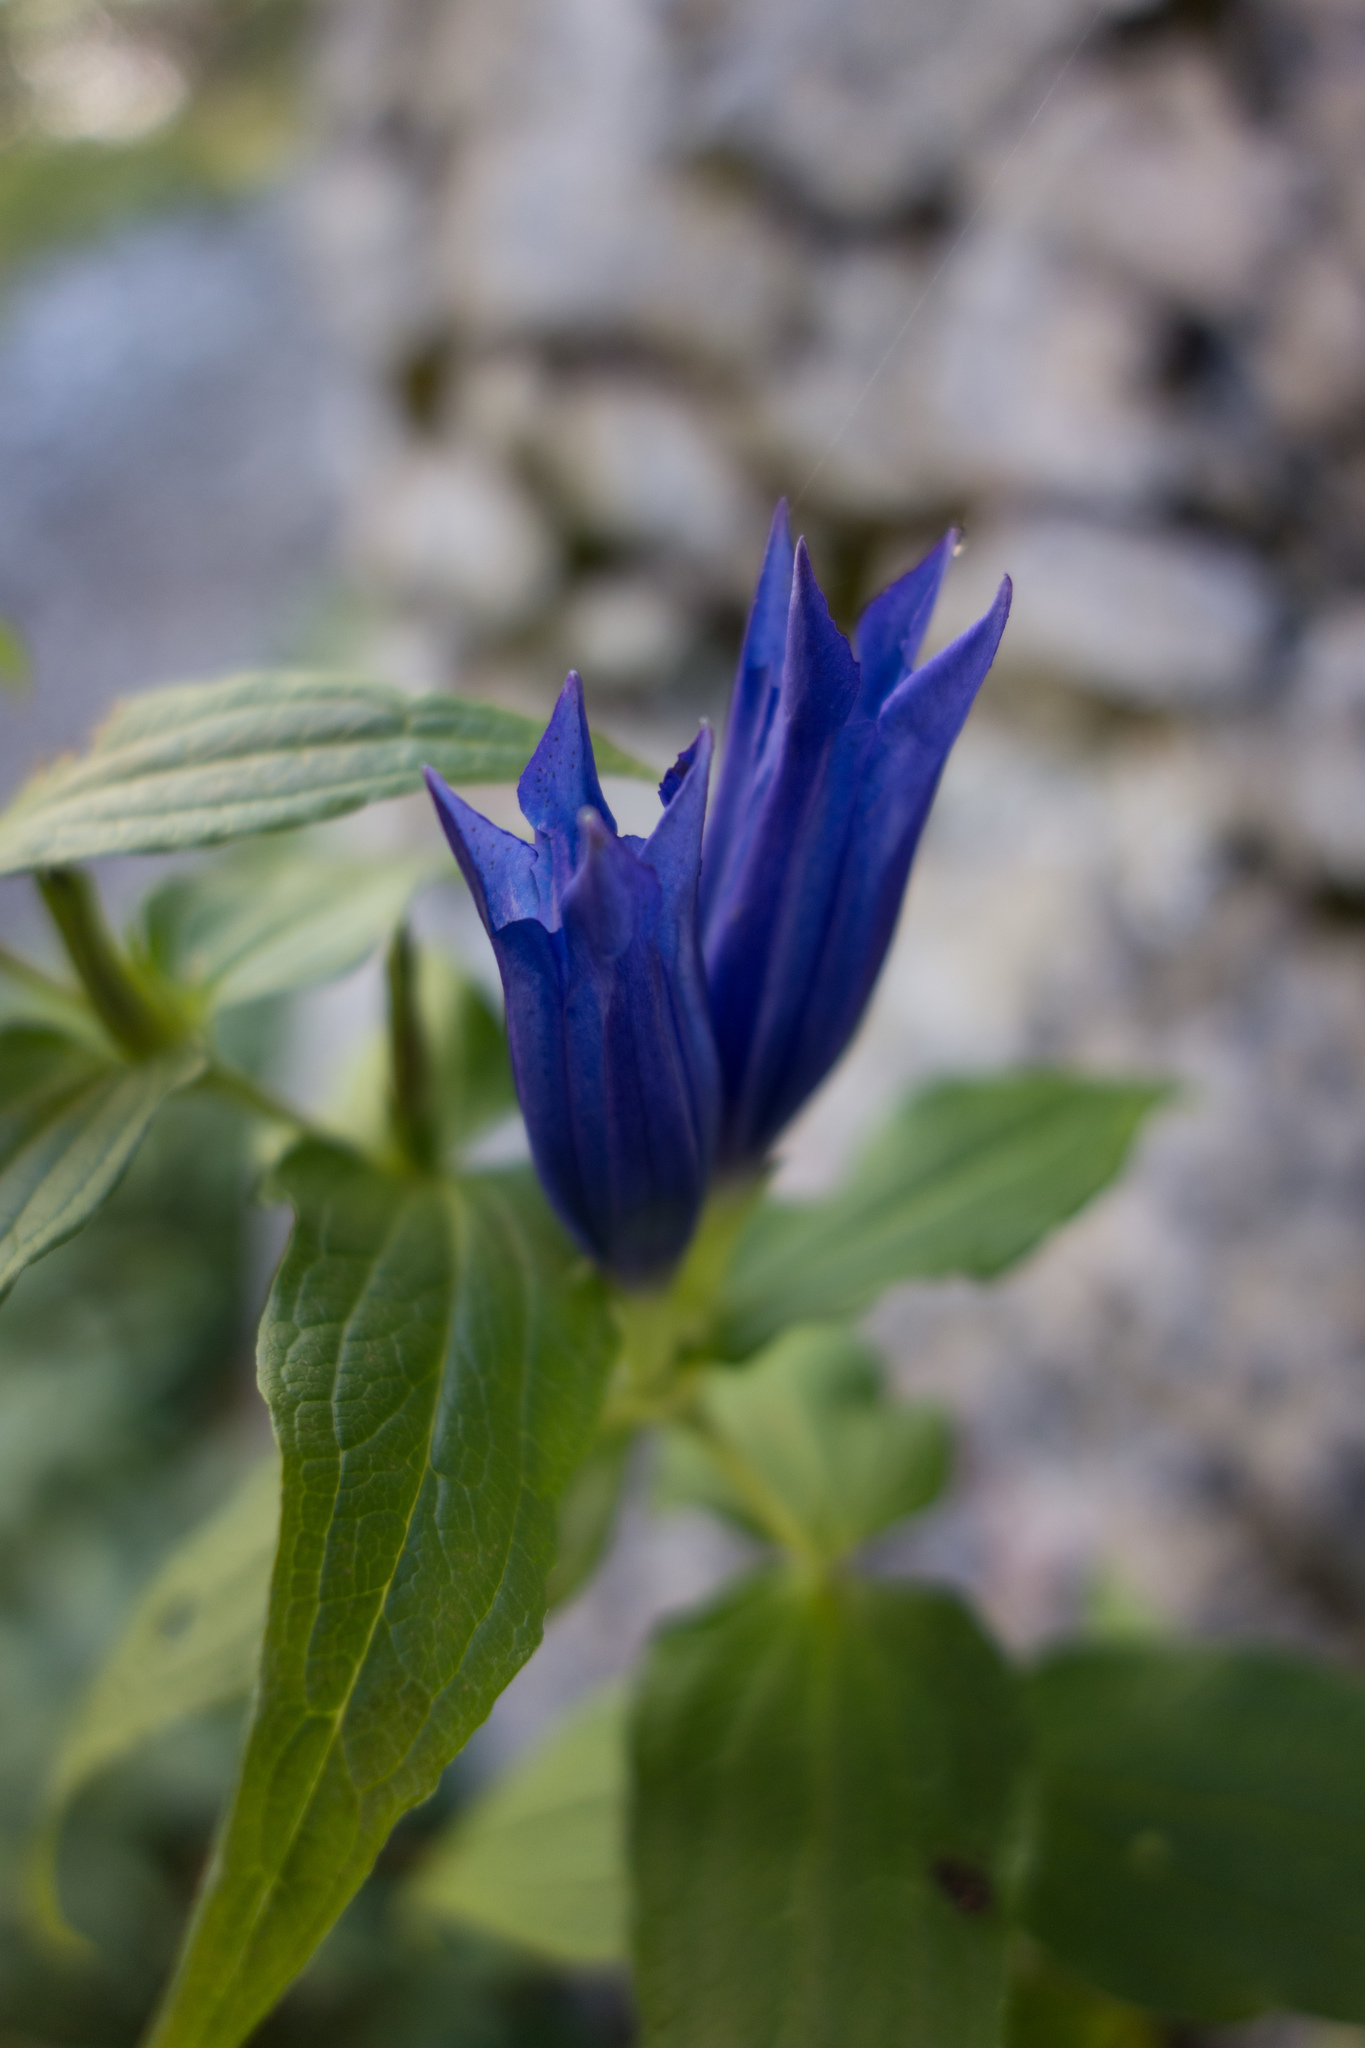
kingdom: Plantae
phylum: Tracheophyta
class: Magnoliopsida
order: Gentianales
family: Gentianaceae
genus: Gentiana
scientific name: Gentiana asclepiadea
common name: Willow gentian
